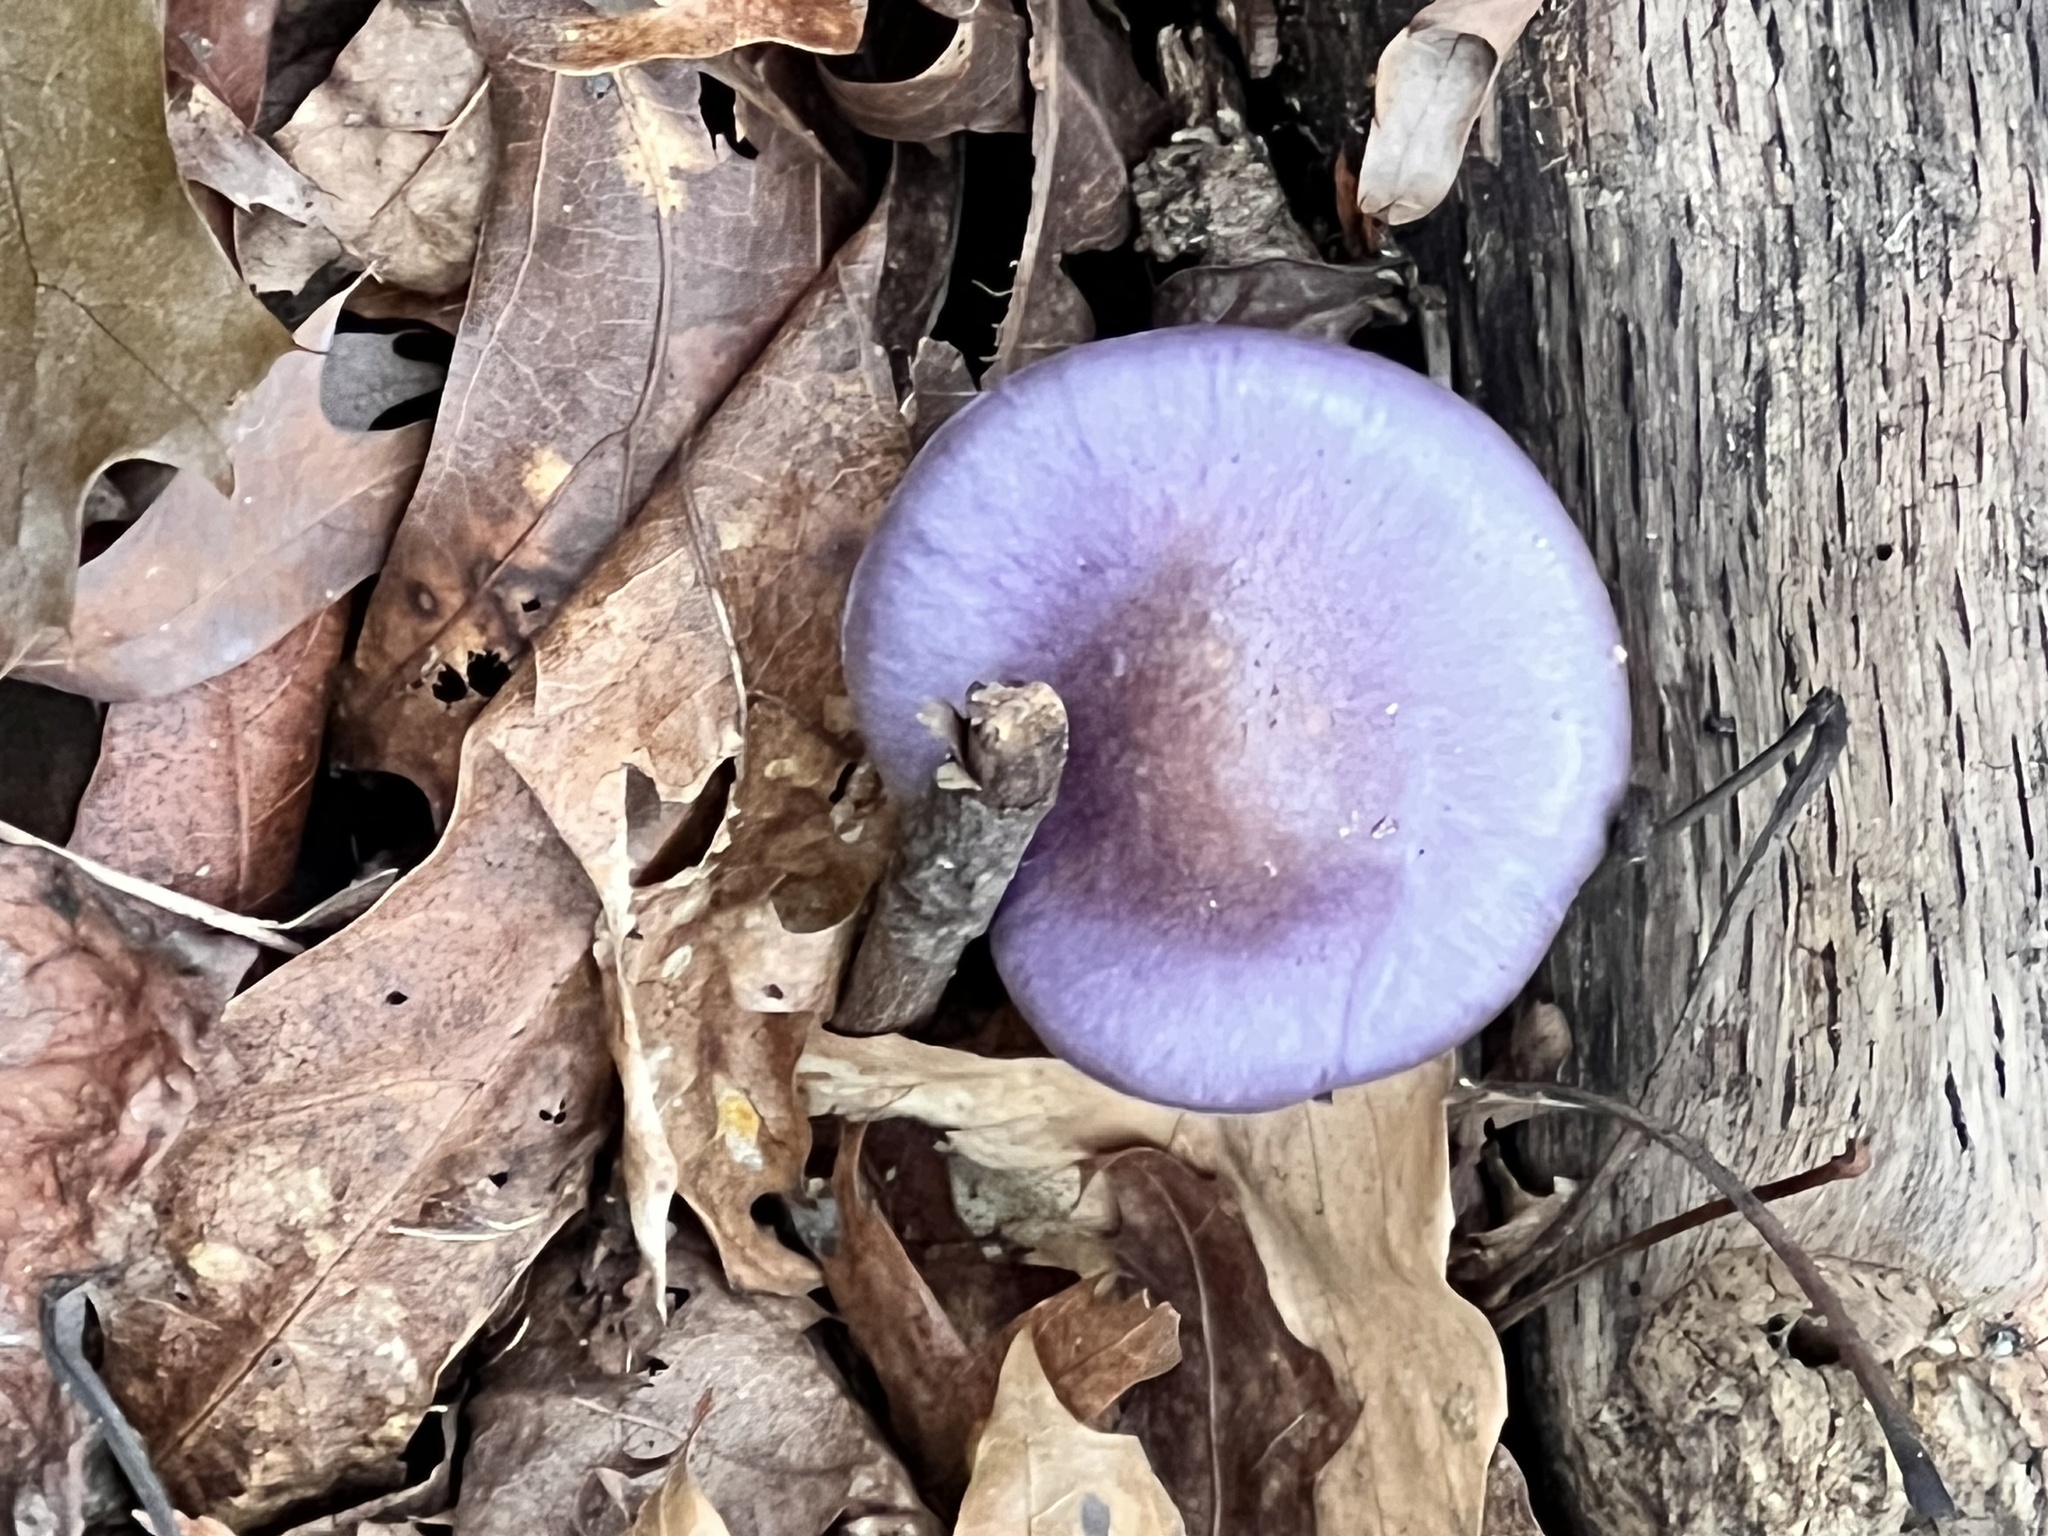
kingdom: Fungi
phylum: Basidiomycota
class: Agaricomycetes
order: Agaricales
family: Cortinariaceae
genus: Cortinarius
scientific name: Cortinarius iodes
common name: Viscid violet cort
